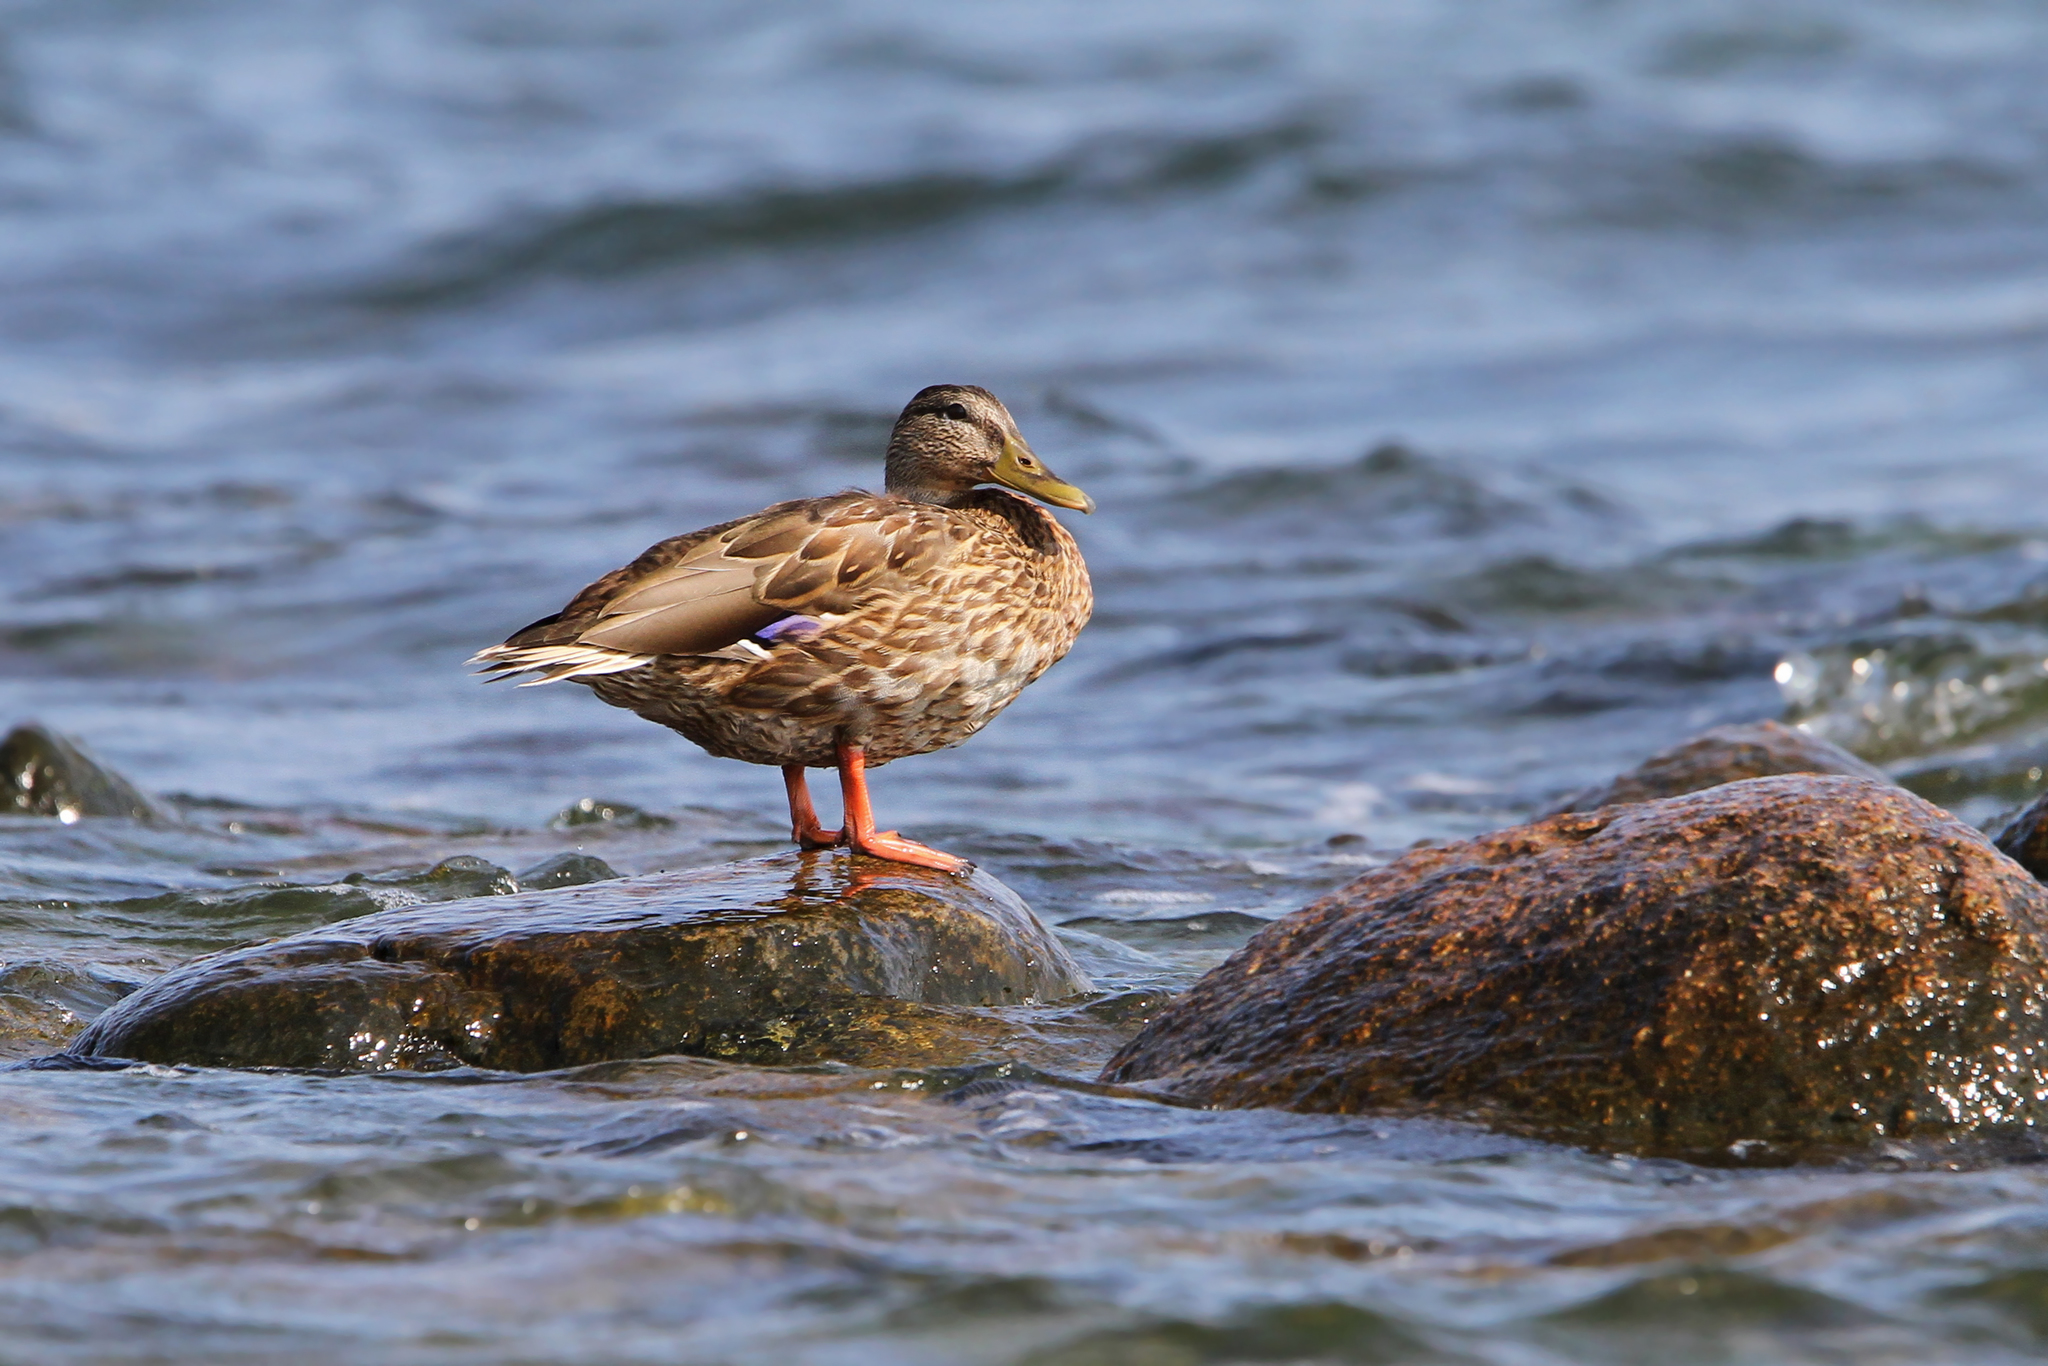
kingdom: Animalia
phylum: Chordata
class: Aves
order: Anseriformes
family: Anatidae
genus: Anas
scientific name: Anas platyrhynchos
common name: Mallard
